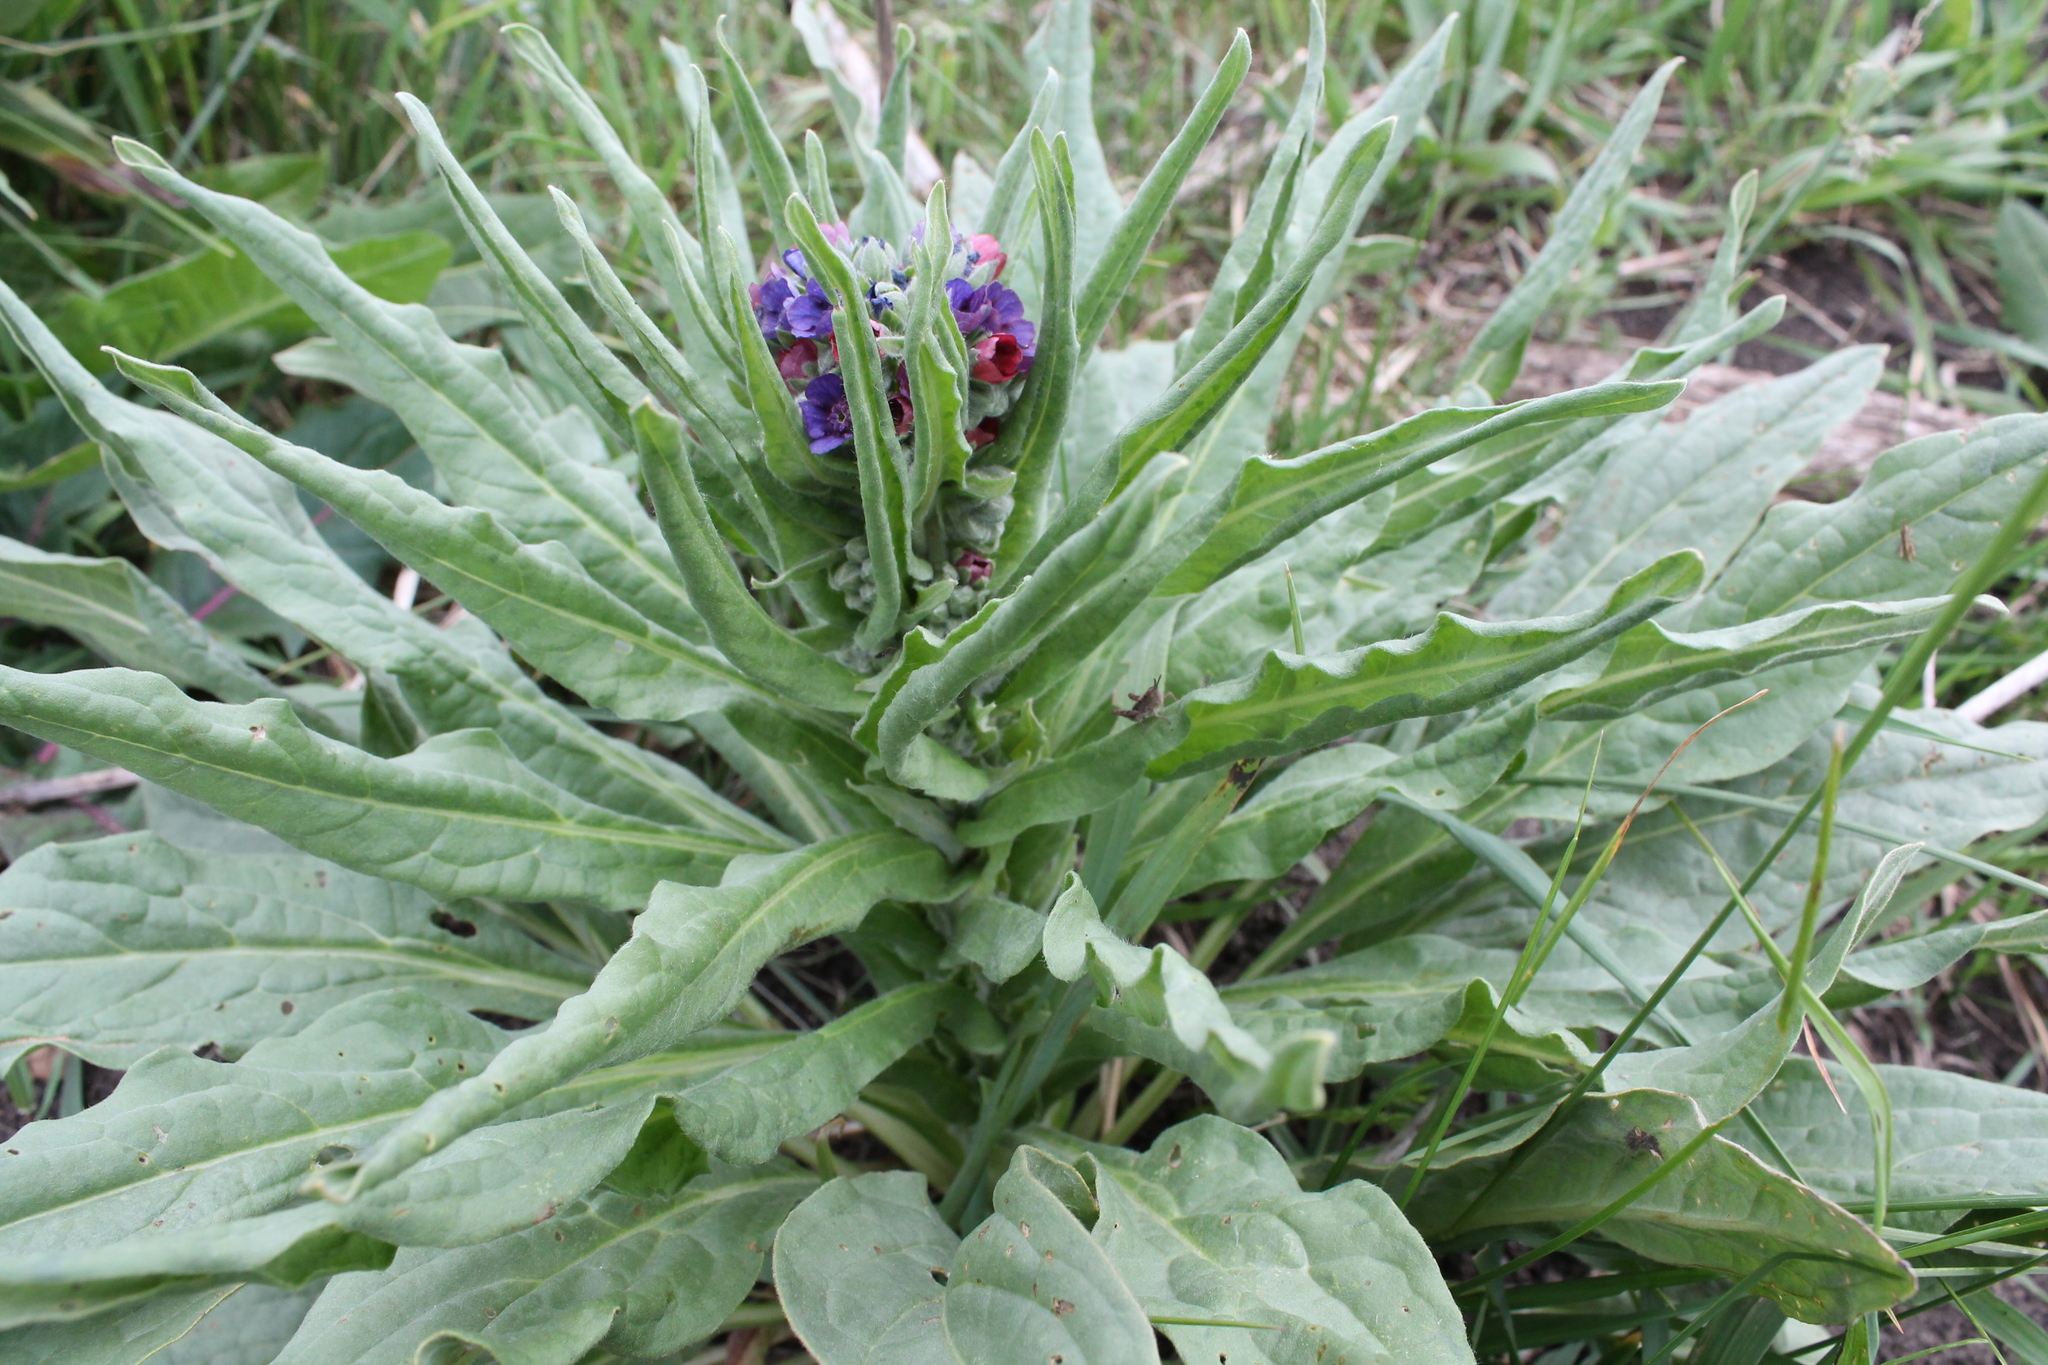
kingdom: Plantae
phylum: Tracheophyta
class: Magnoliopsida
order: Boraginales
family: Boraginaceae
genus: Cynoglossum
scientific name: Cynoglossum officinale
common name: Hound's-tongue
